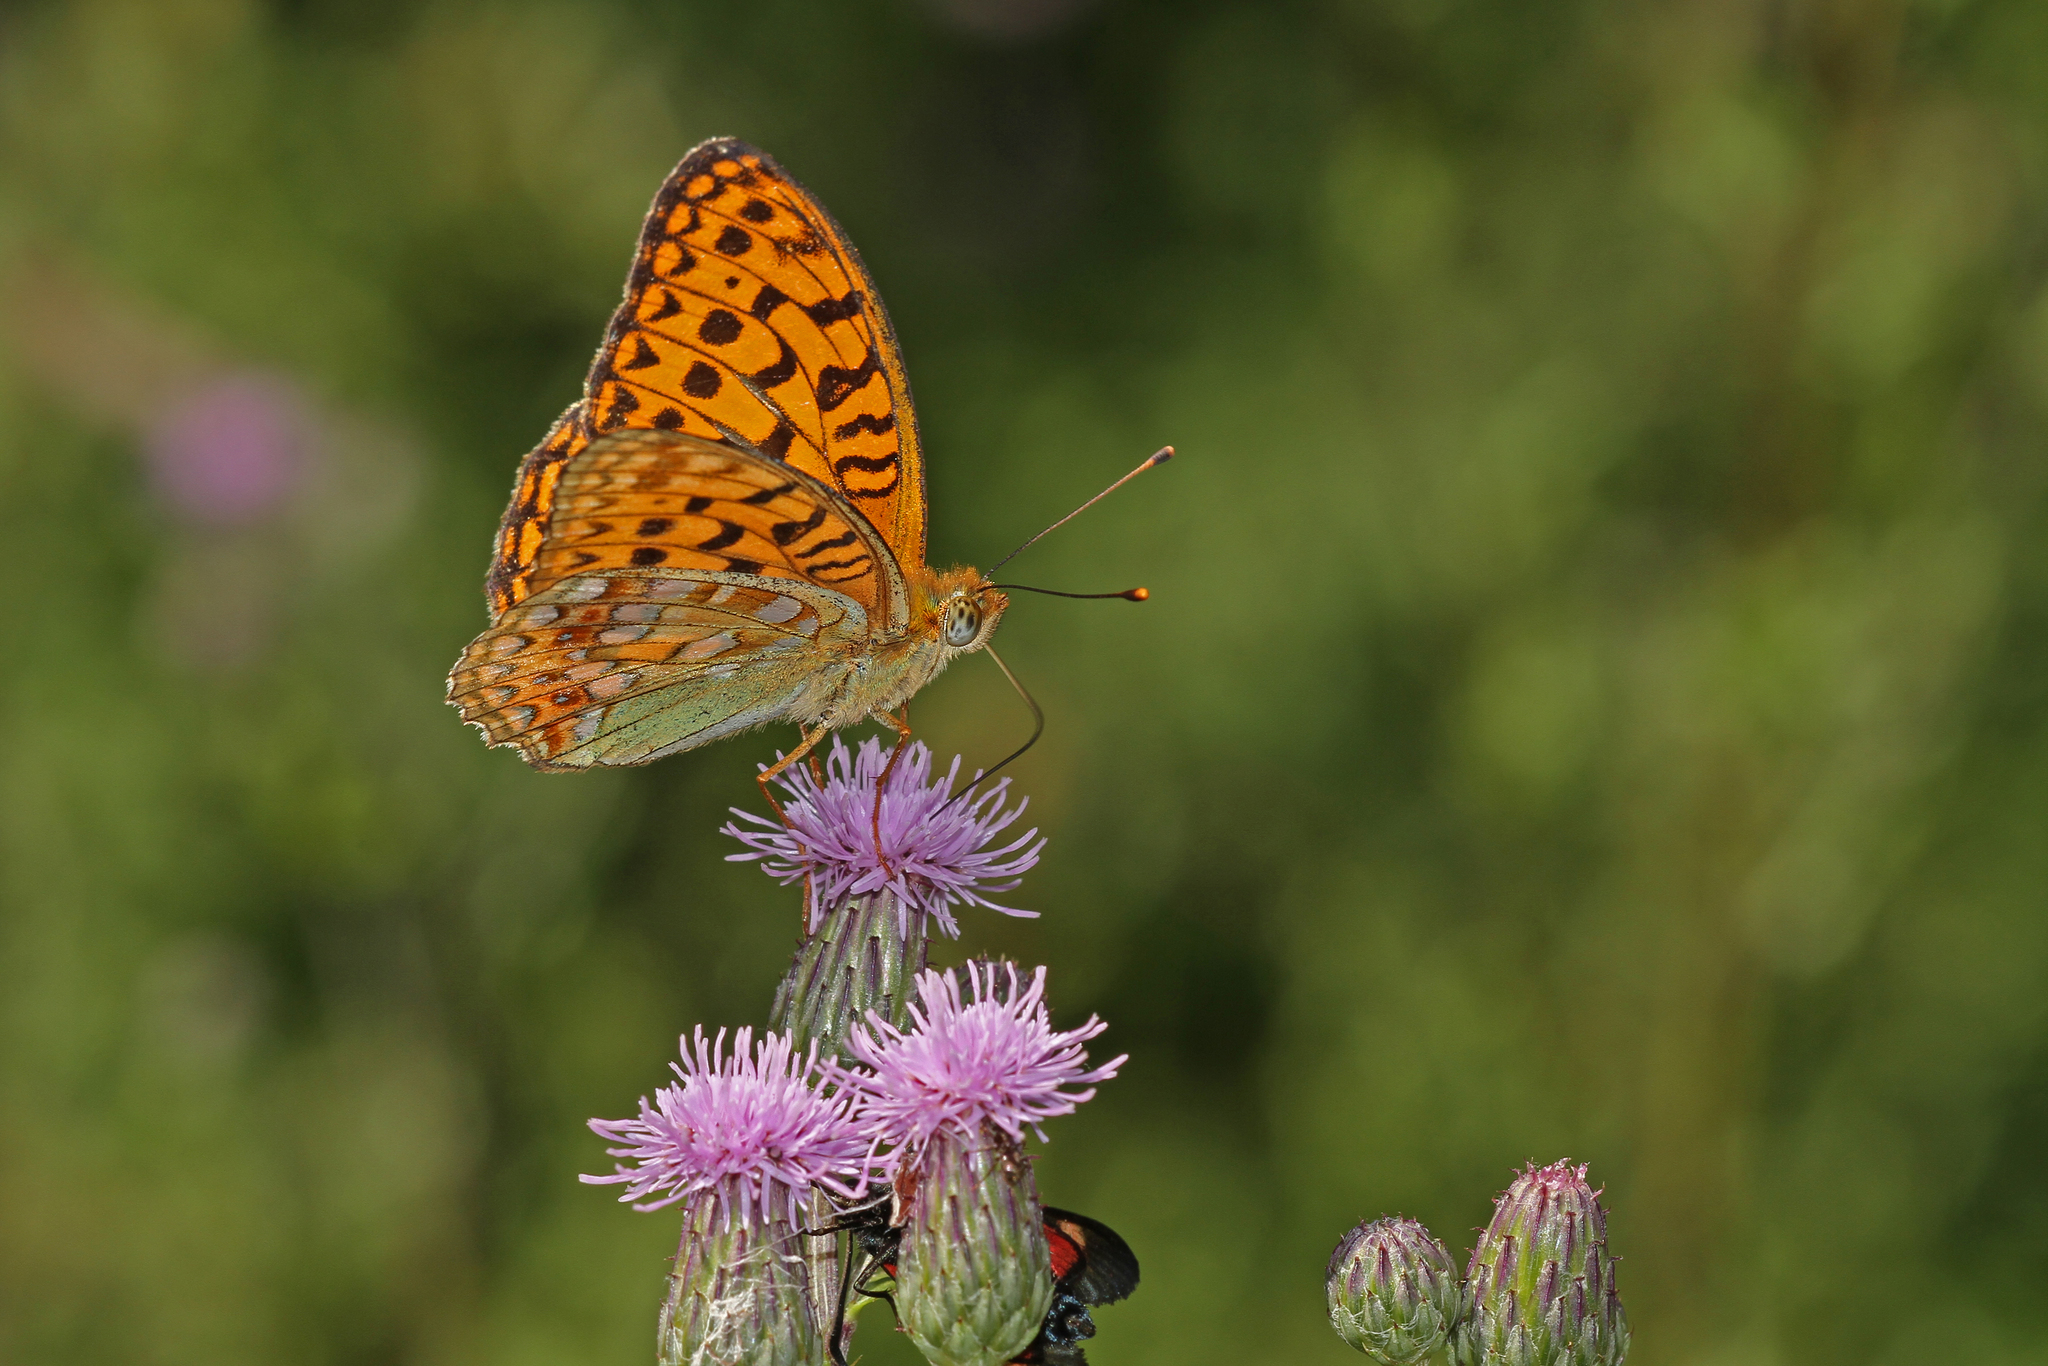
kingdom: Animalia
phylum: Arthropoda
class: Insecta
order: Lepidoptera
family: Nymphalidae
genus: Fabriciana
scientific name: Fabriciana adippe
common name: High brown fritillary
